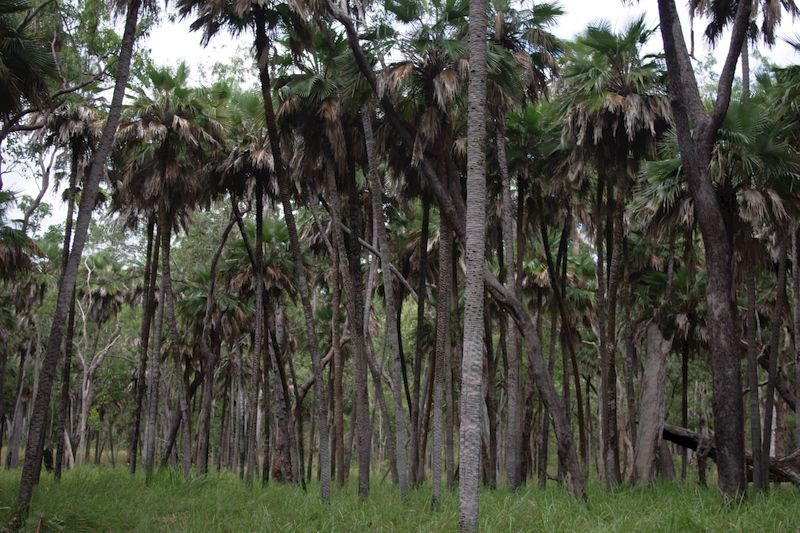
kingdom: Plantae
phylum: Tracheophyta
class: Liliopsida
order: Arecales
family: Arecaceae
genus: Livistona
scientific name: Livistona muelleri
